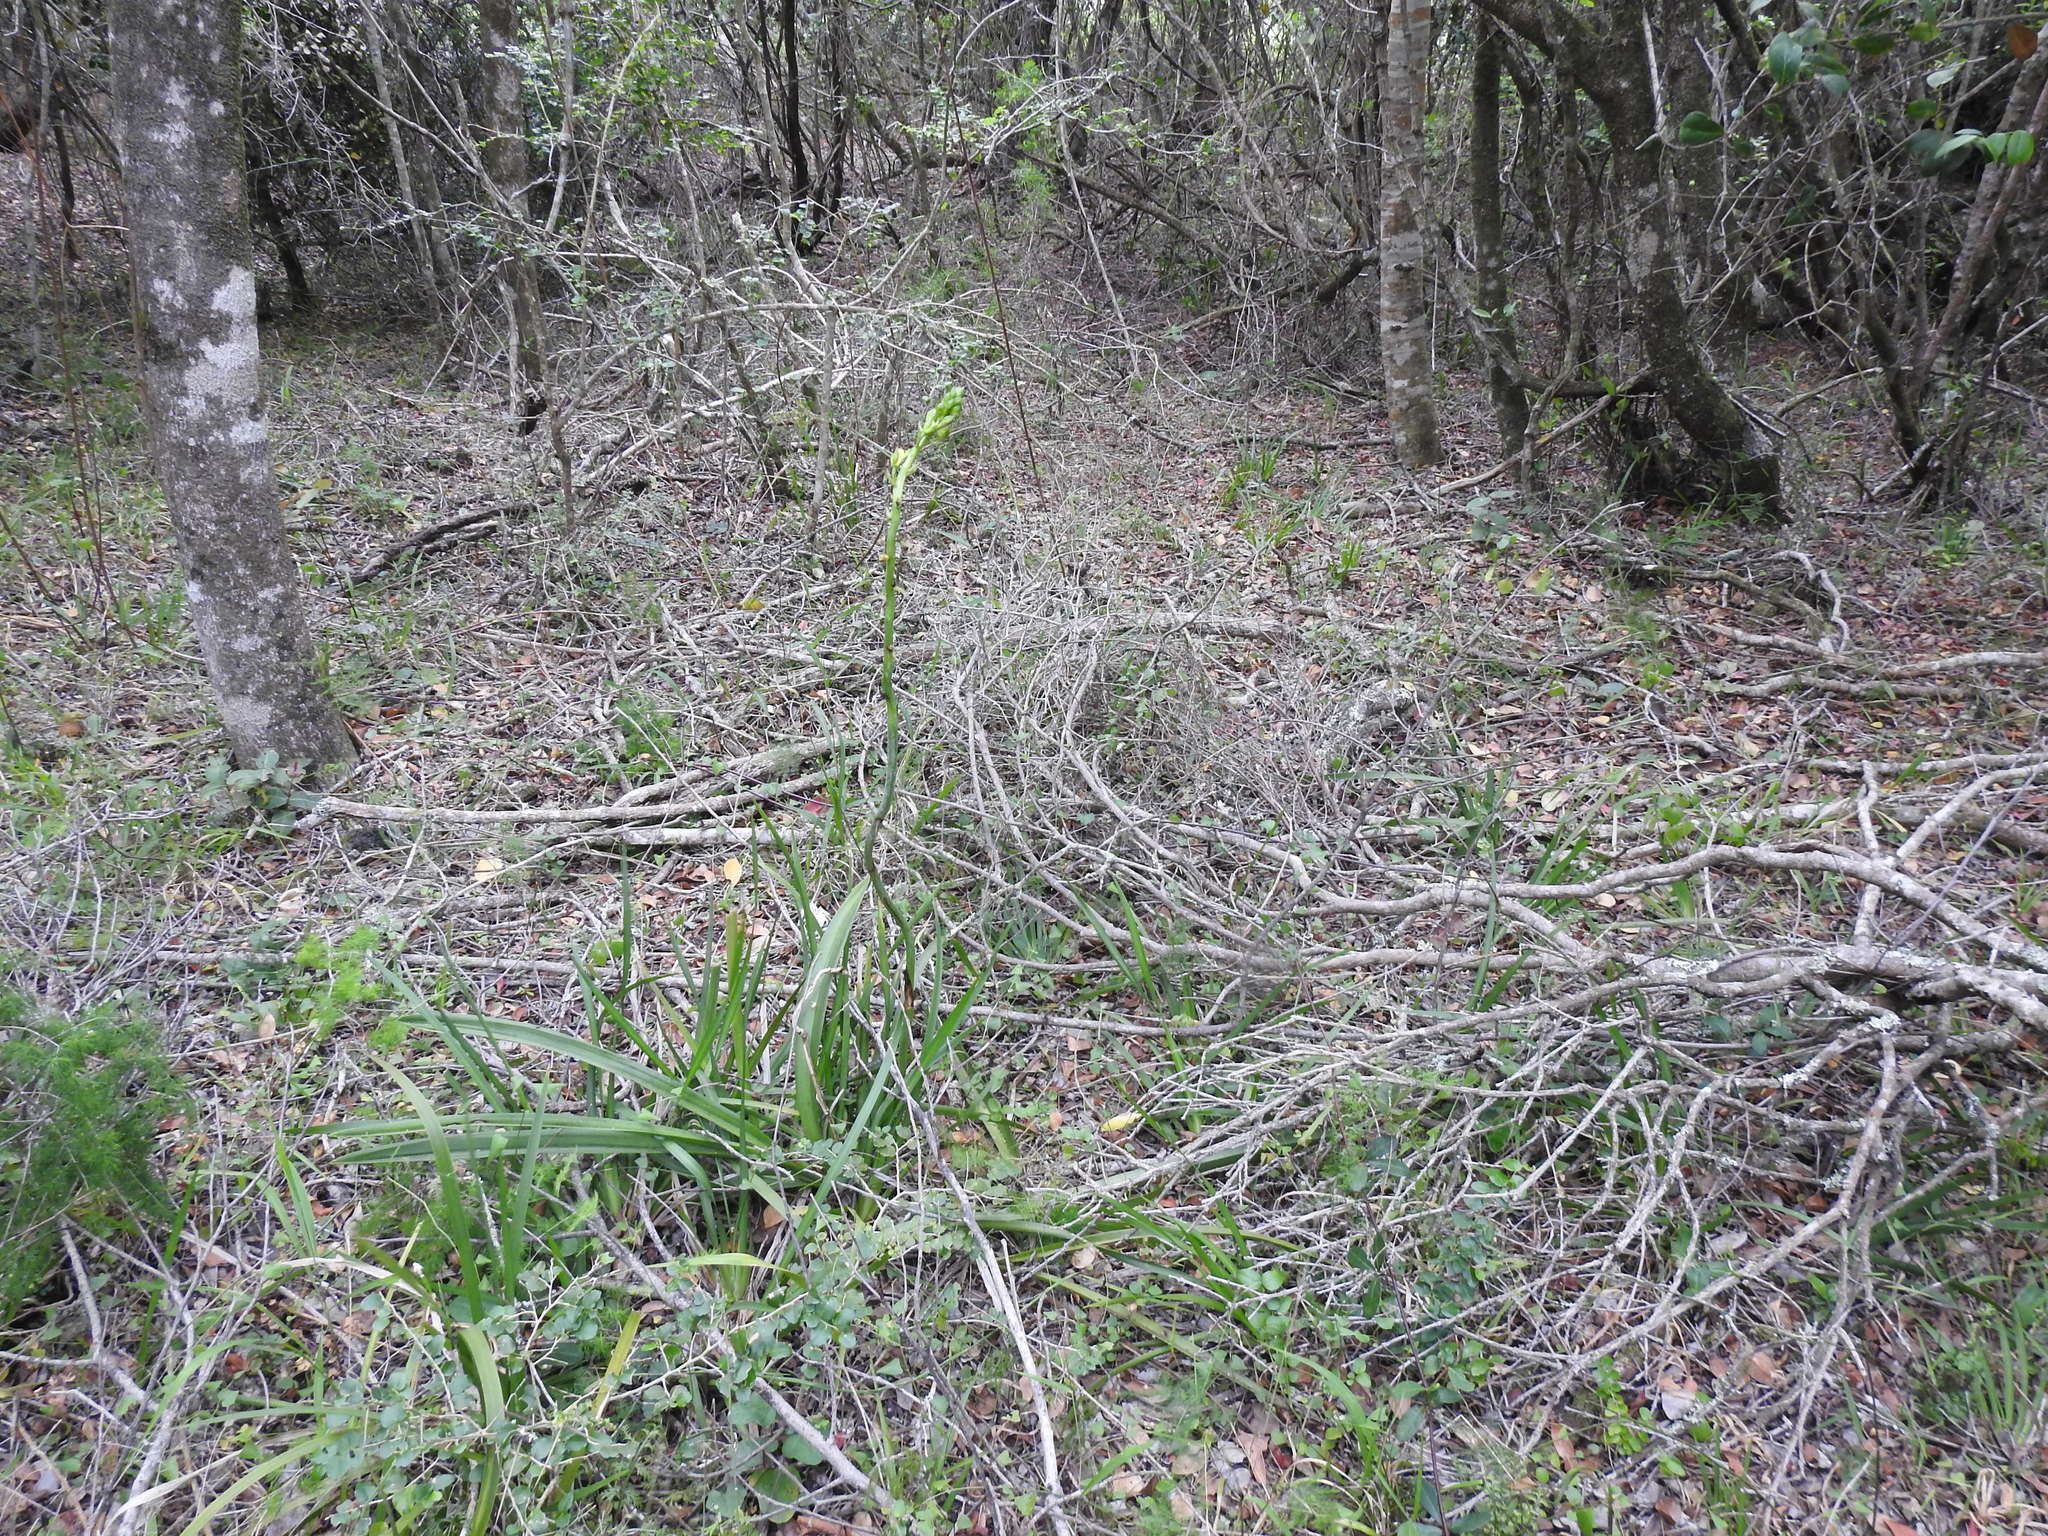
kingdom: Plantae
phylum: Tracheophyta
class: Liliopsida
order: Asparagales
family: Orchidaceae
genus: Eulophia
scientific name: Eulophia speciosa
